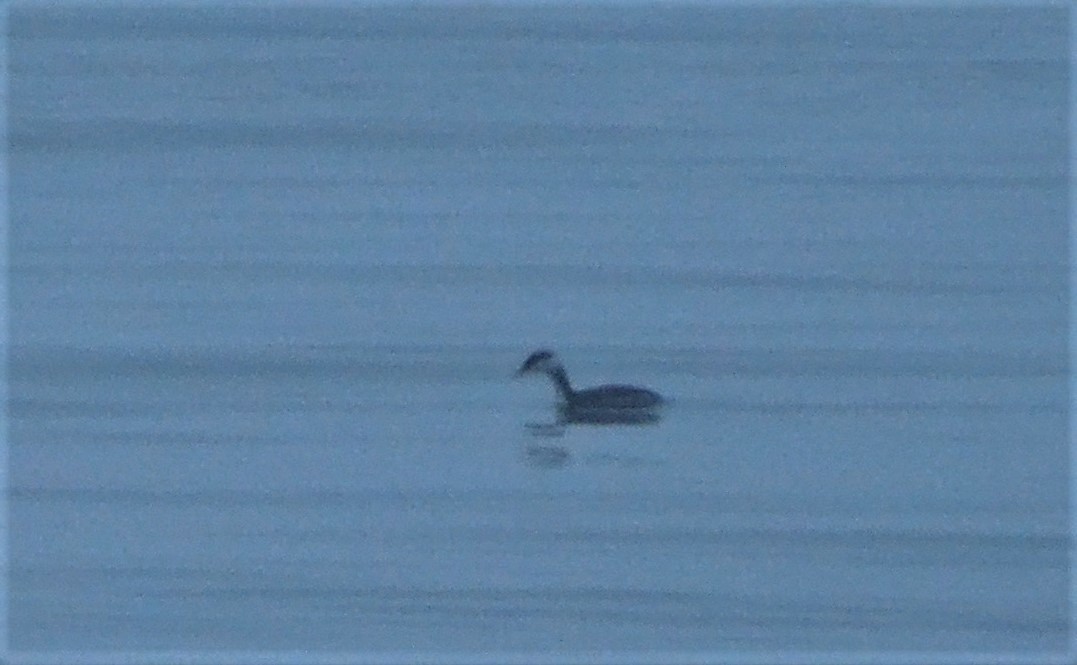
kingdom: Animalia
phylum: Chordata
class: Aves
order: Podicipediformes
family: Podicipedidae
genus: Podiceps
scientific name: Podiceps auritus
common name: Horned grebe
